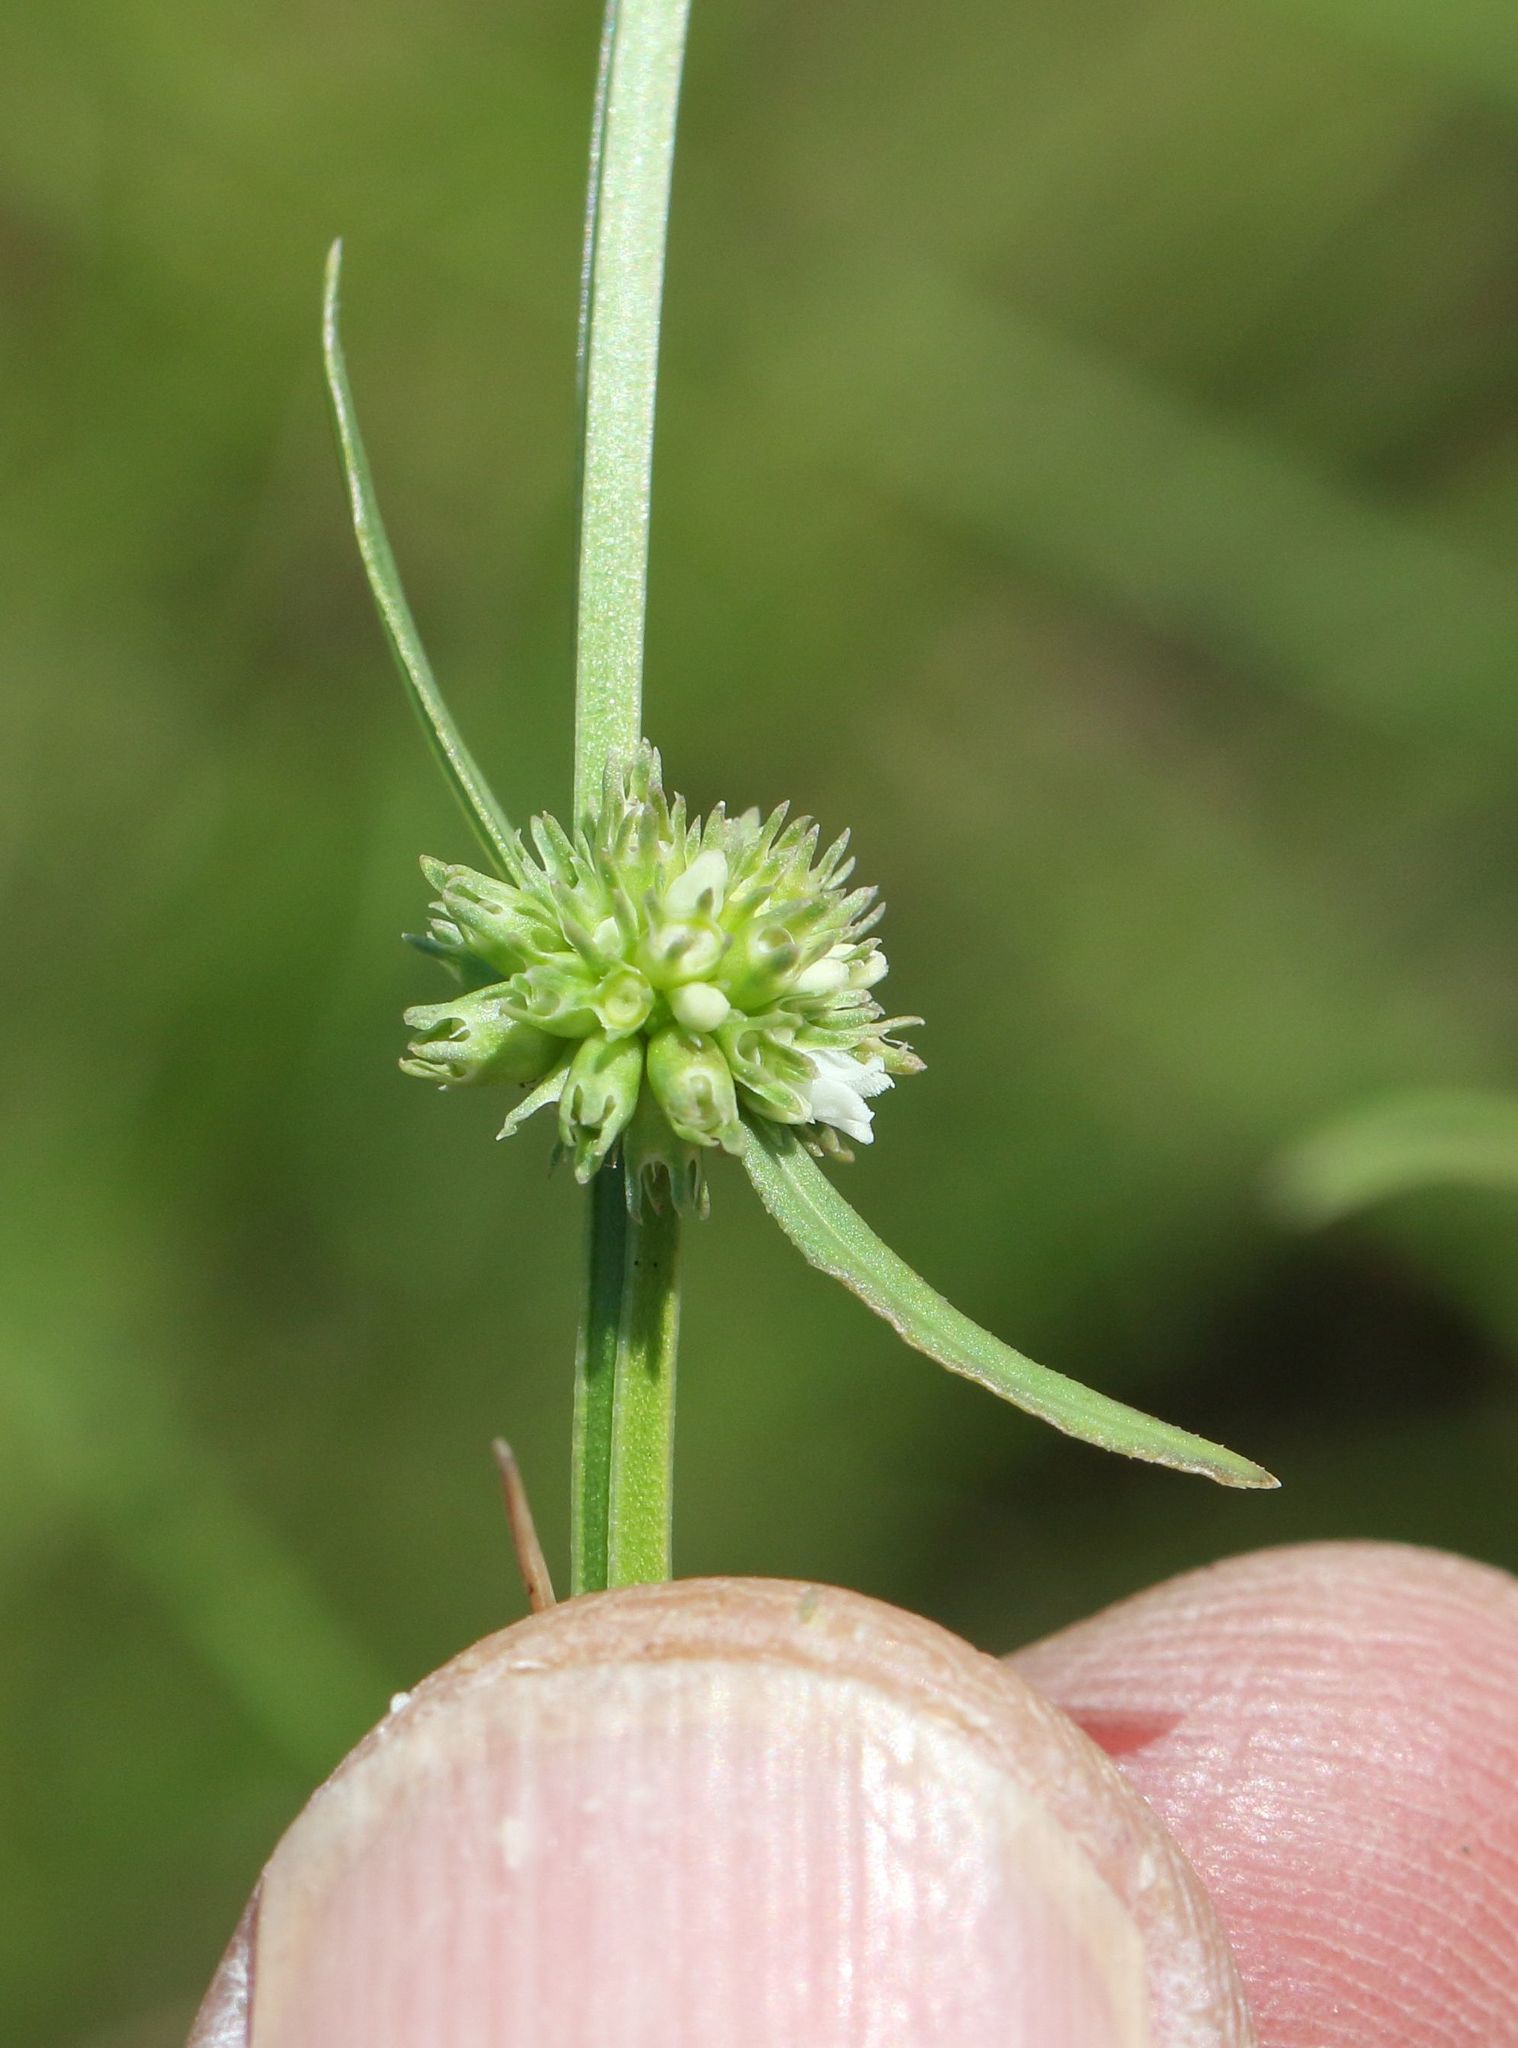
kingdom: Plantae
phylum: Tracheophyta
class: Magnoliopsida
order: Gentianales
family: Rubiaceae
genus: Spermacoce
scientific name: Spermacoce natalensis
